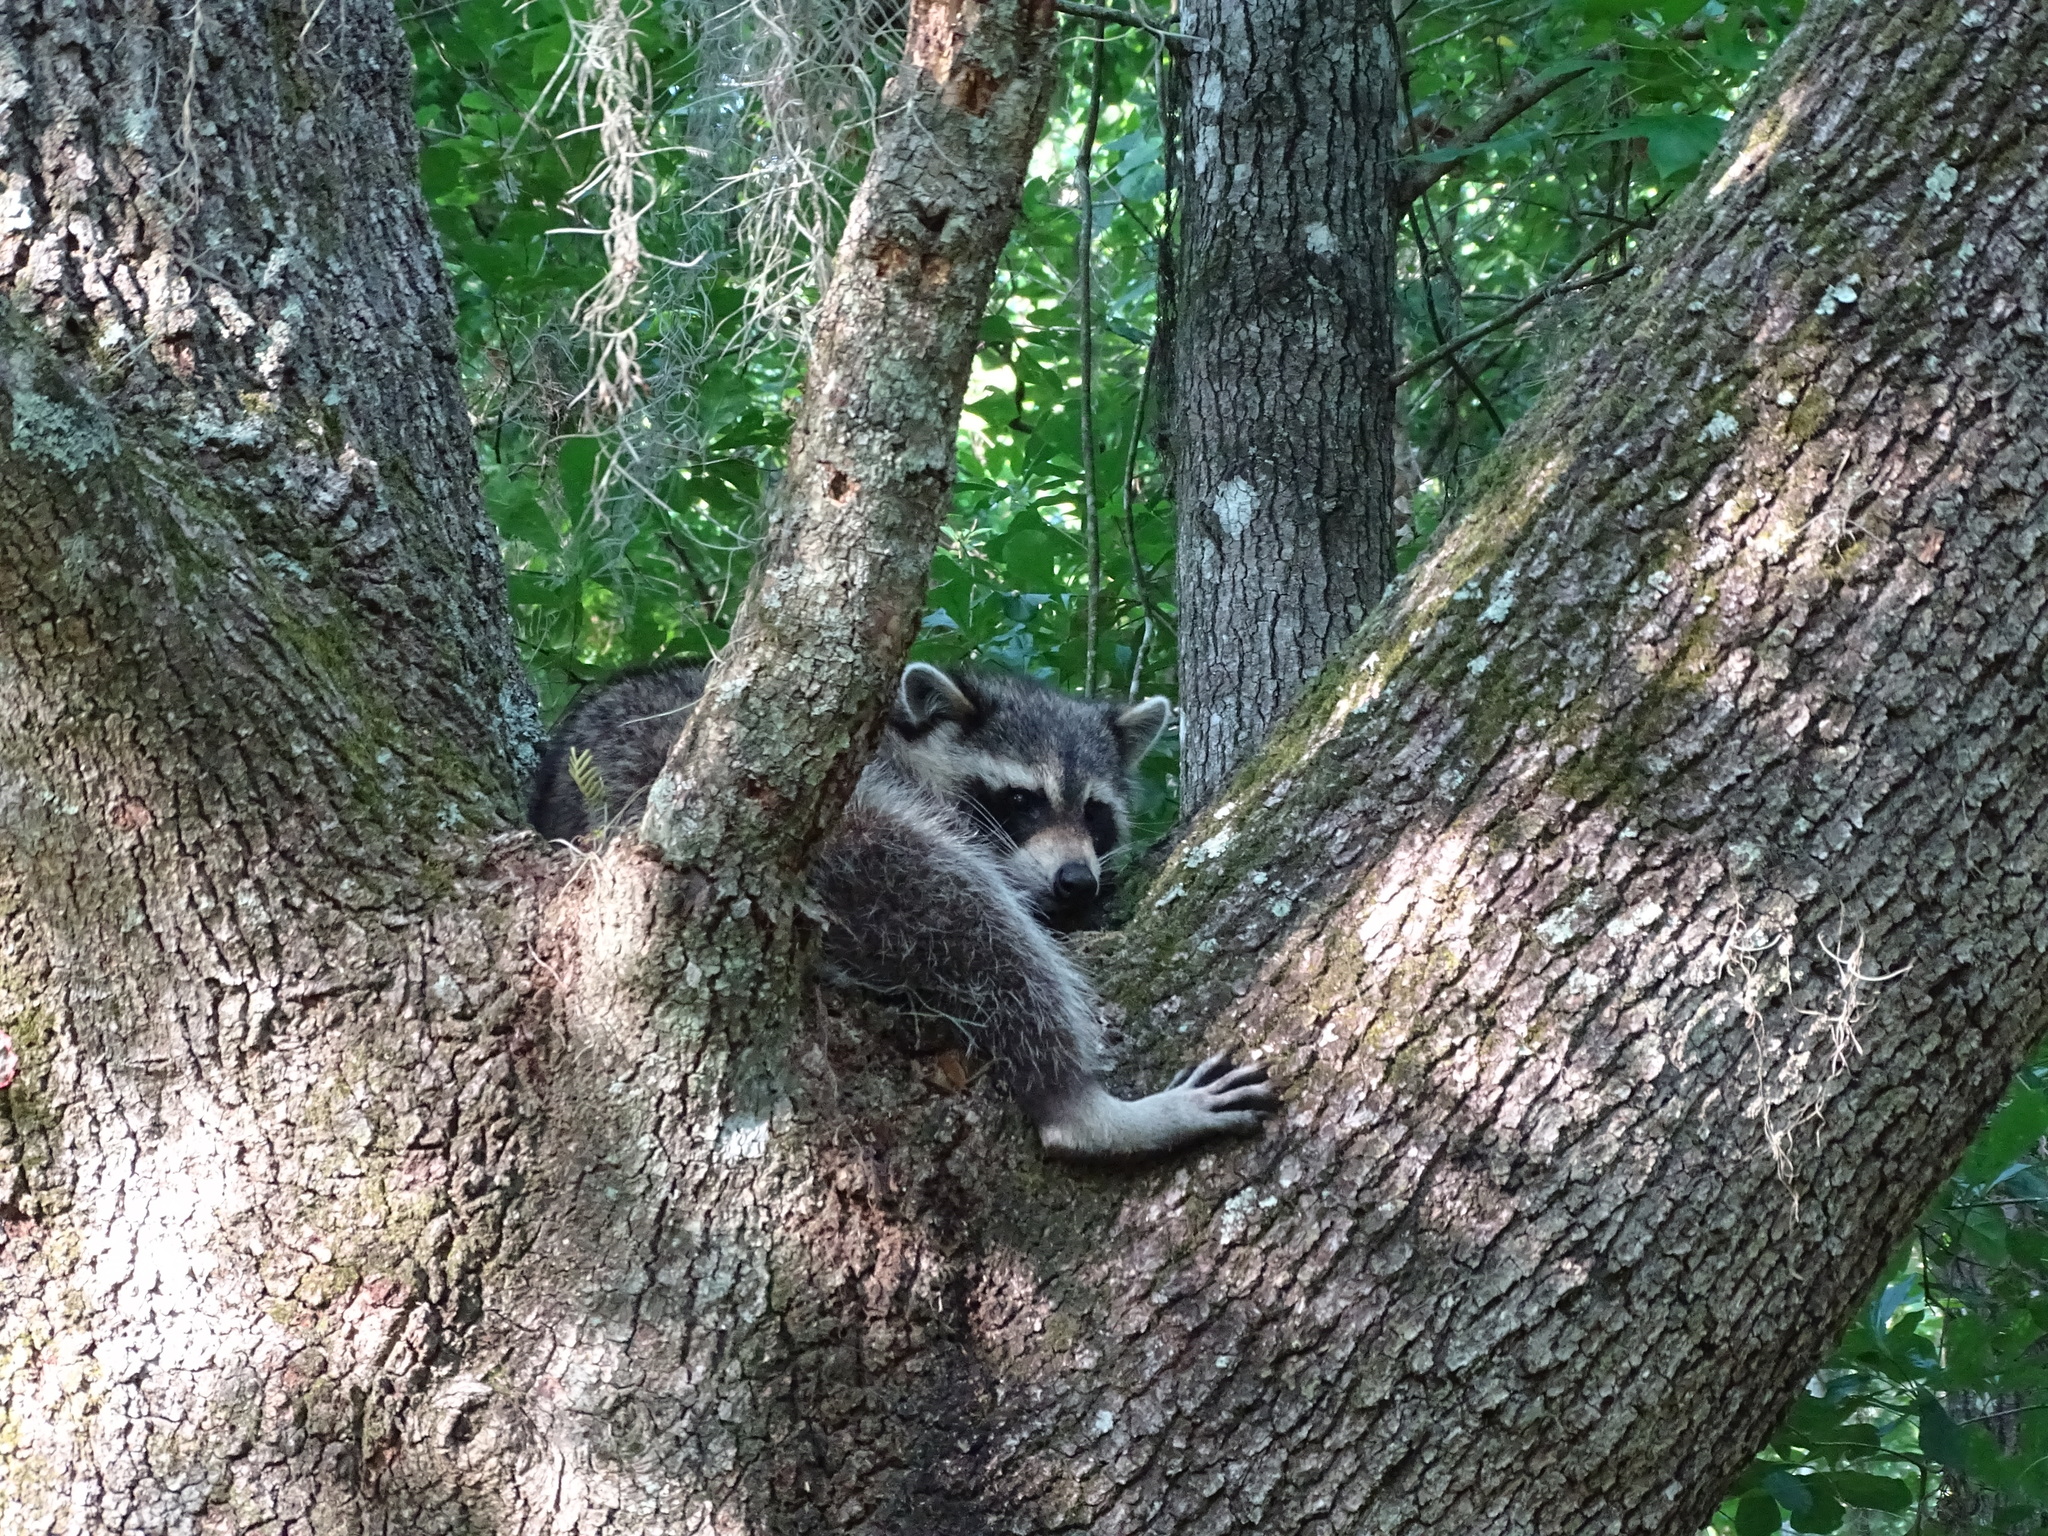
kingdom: Animalia
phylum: Chordata
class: Mammalia
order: Carnivora
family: Procyonidae
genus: Procyon
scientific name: Procyon lotor
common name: Raccoon
